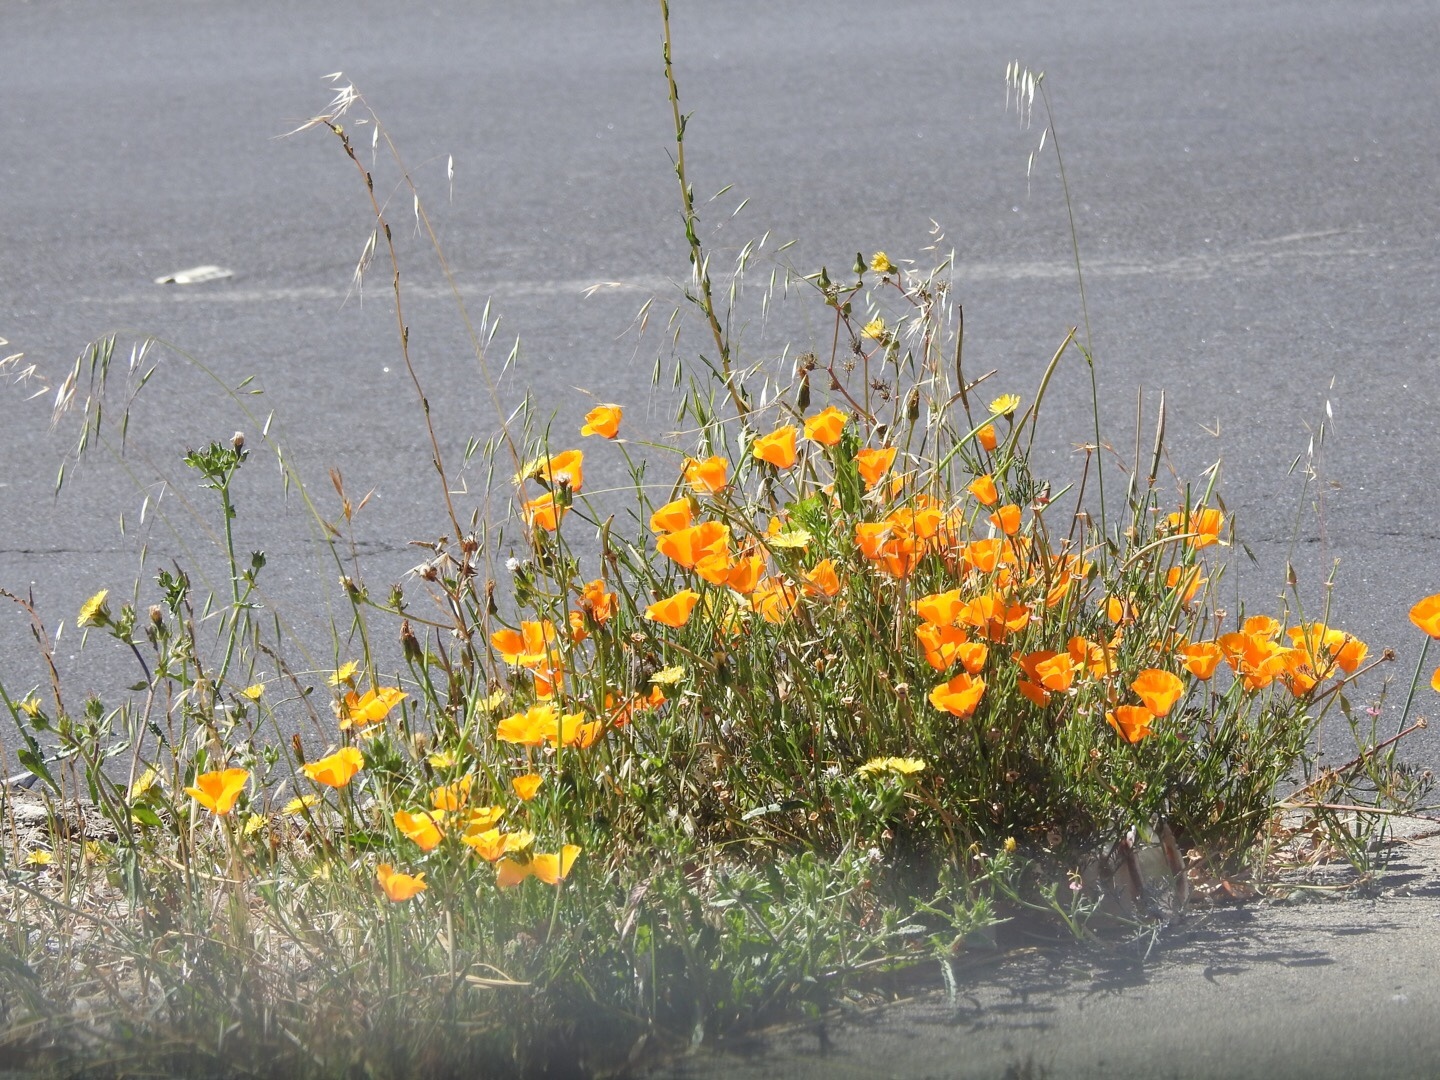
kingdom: Plantae
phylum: Tracheophyta
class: Magnoliopsida
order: Ranunculales
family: Papaveraceae
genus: Eschscholzia
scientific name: Eschscholzia californica
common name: California poppy
